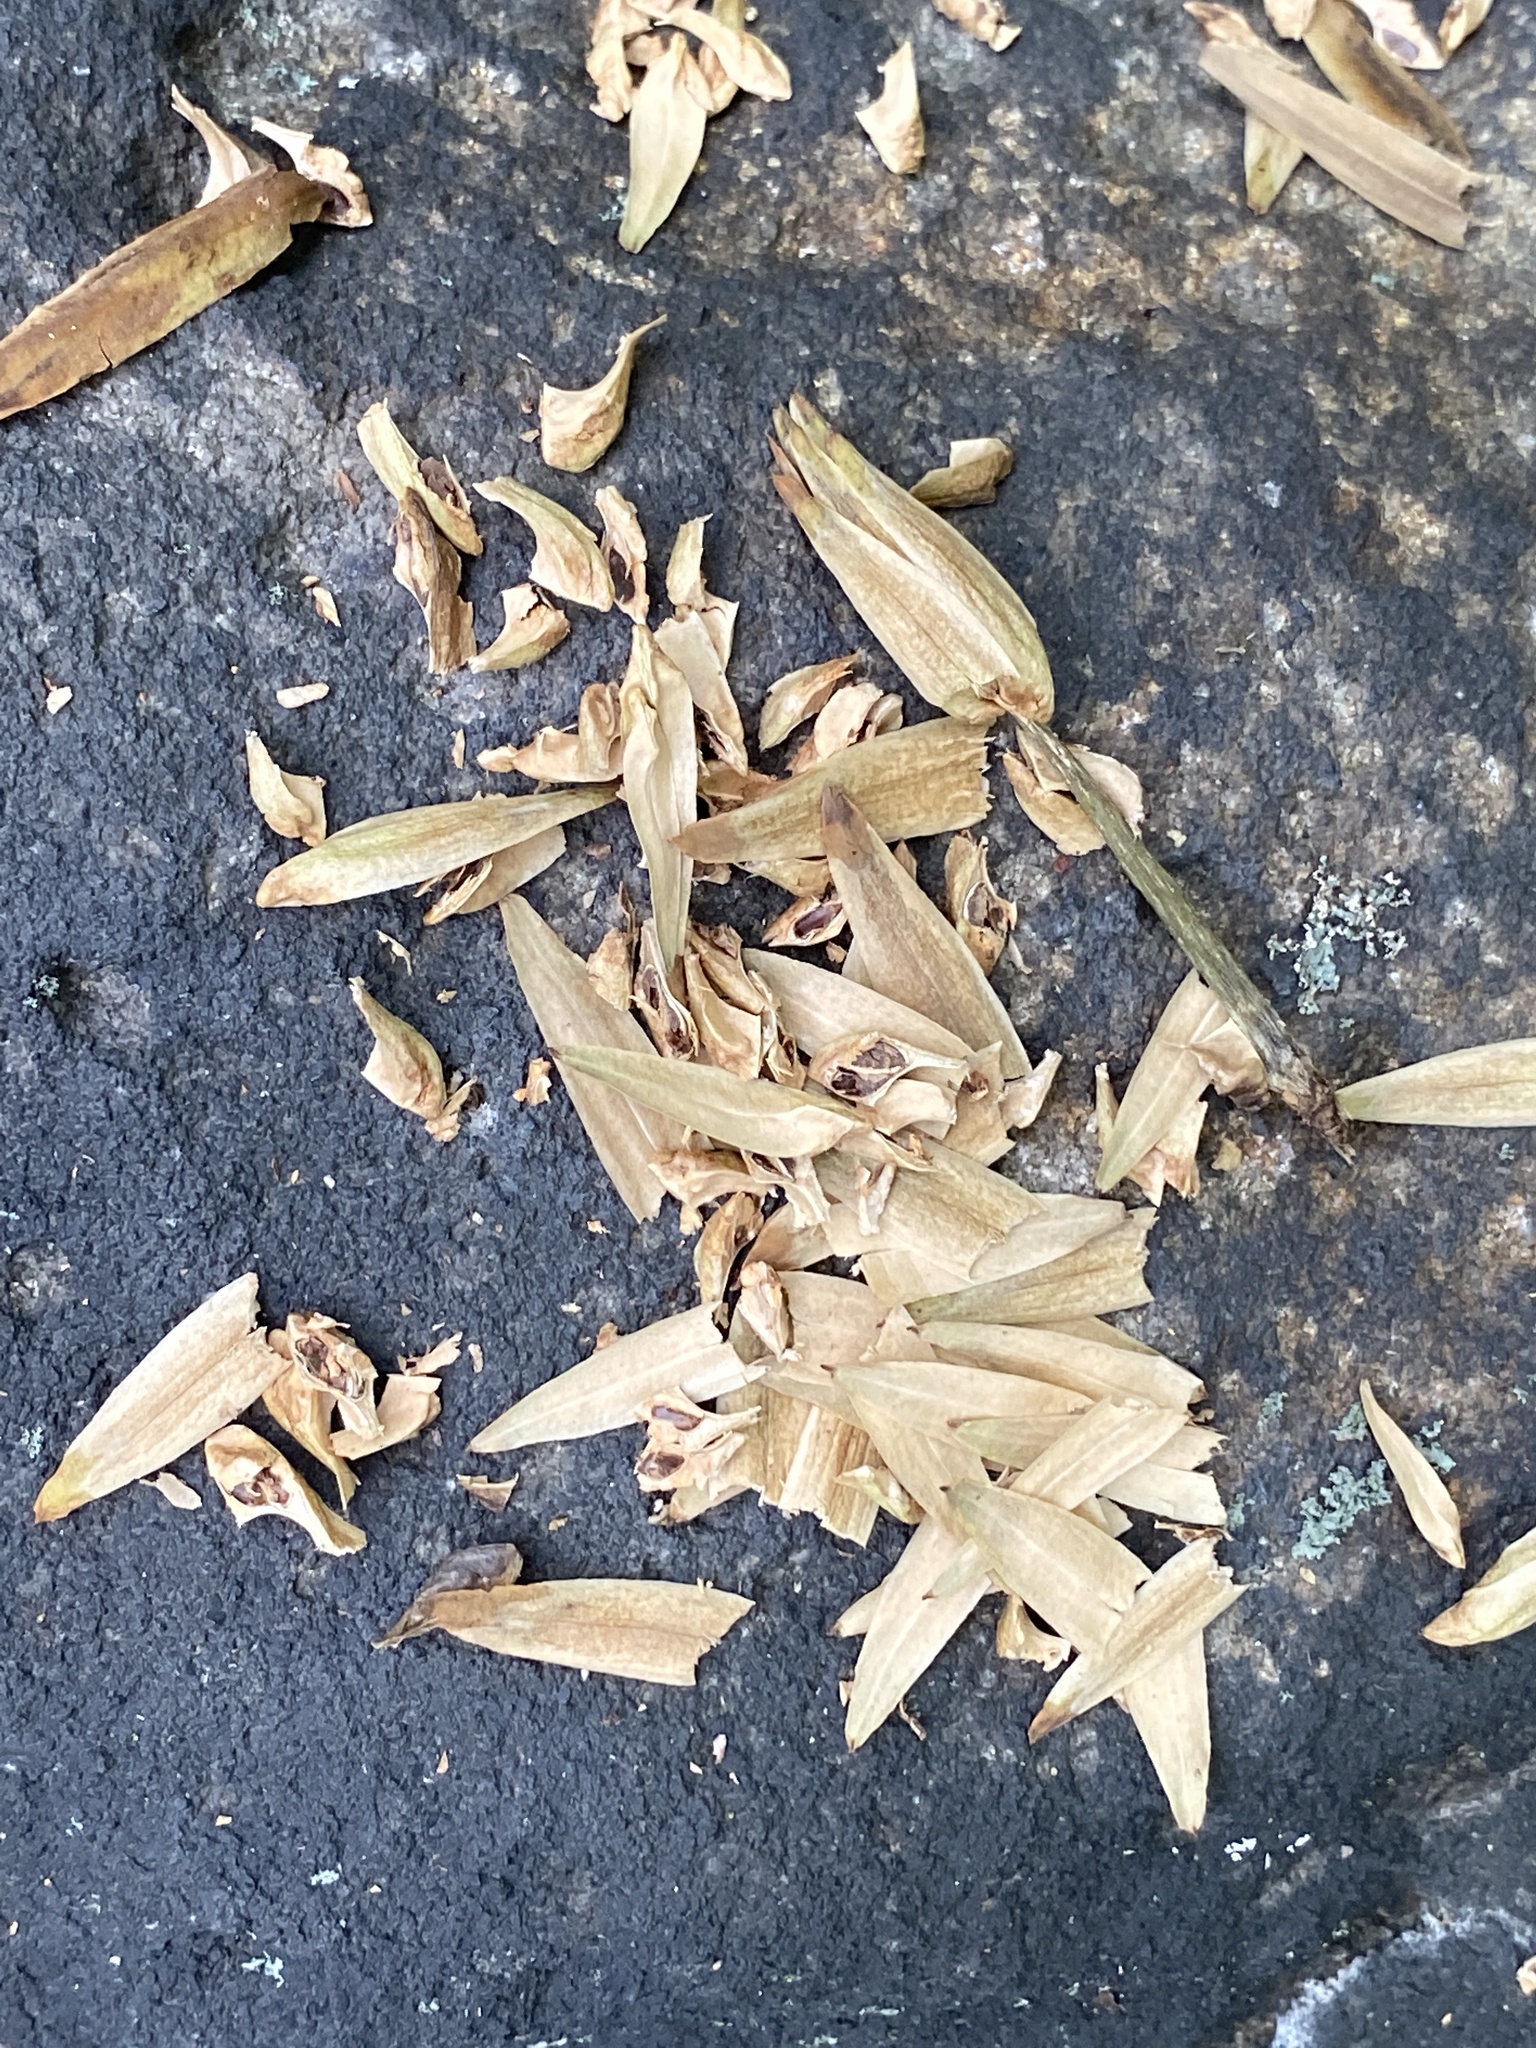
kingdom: Plantae
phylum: Tracheophyta
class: Magnoliopsida
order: Magnoliales
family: Magnoliaceae
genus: Liriodendron
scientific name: Liriodendron tulipifera
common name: Tulip tree
